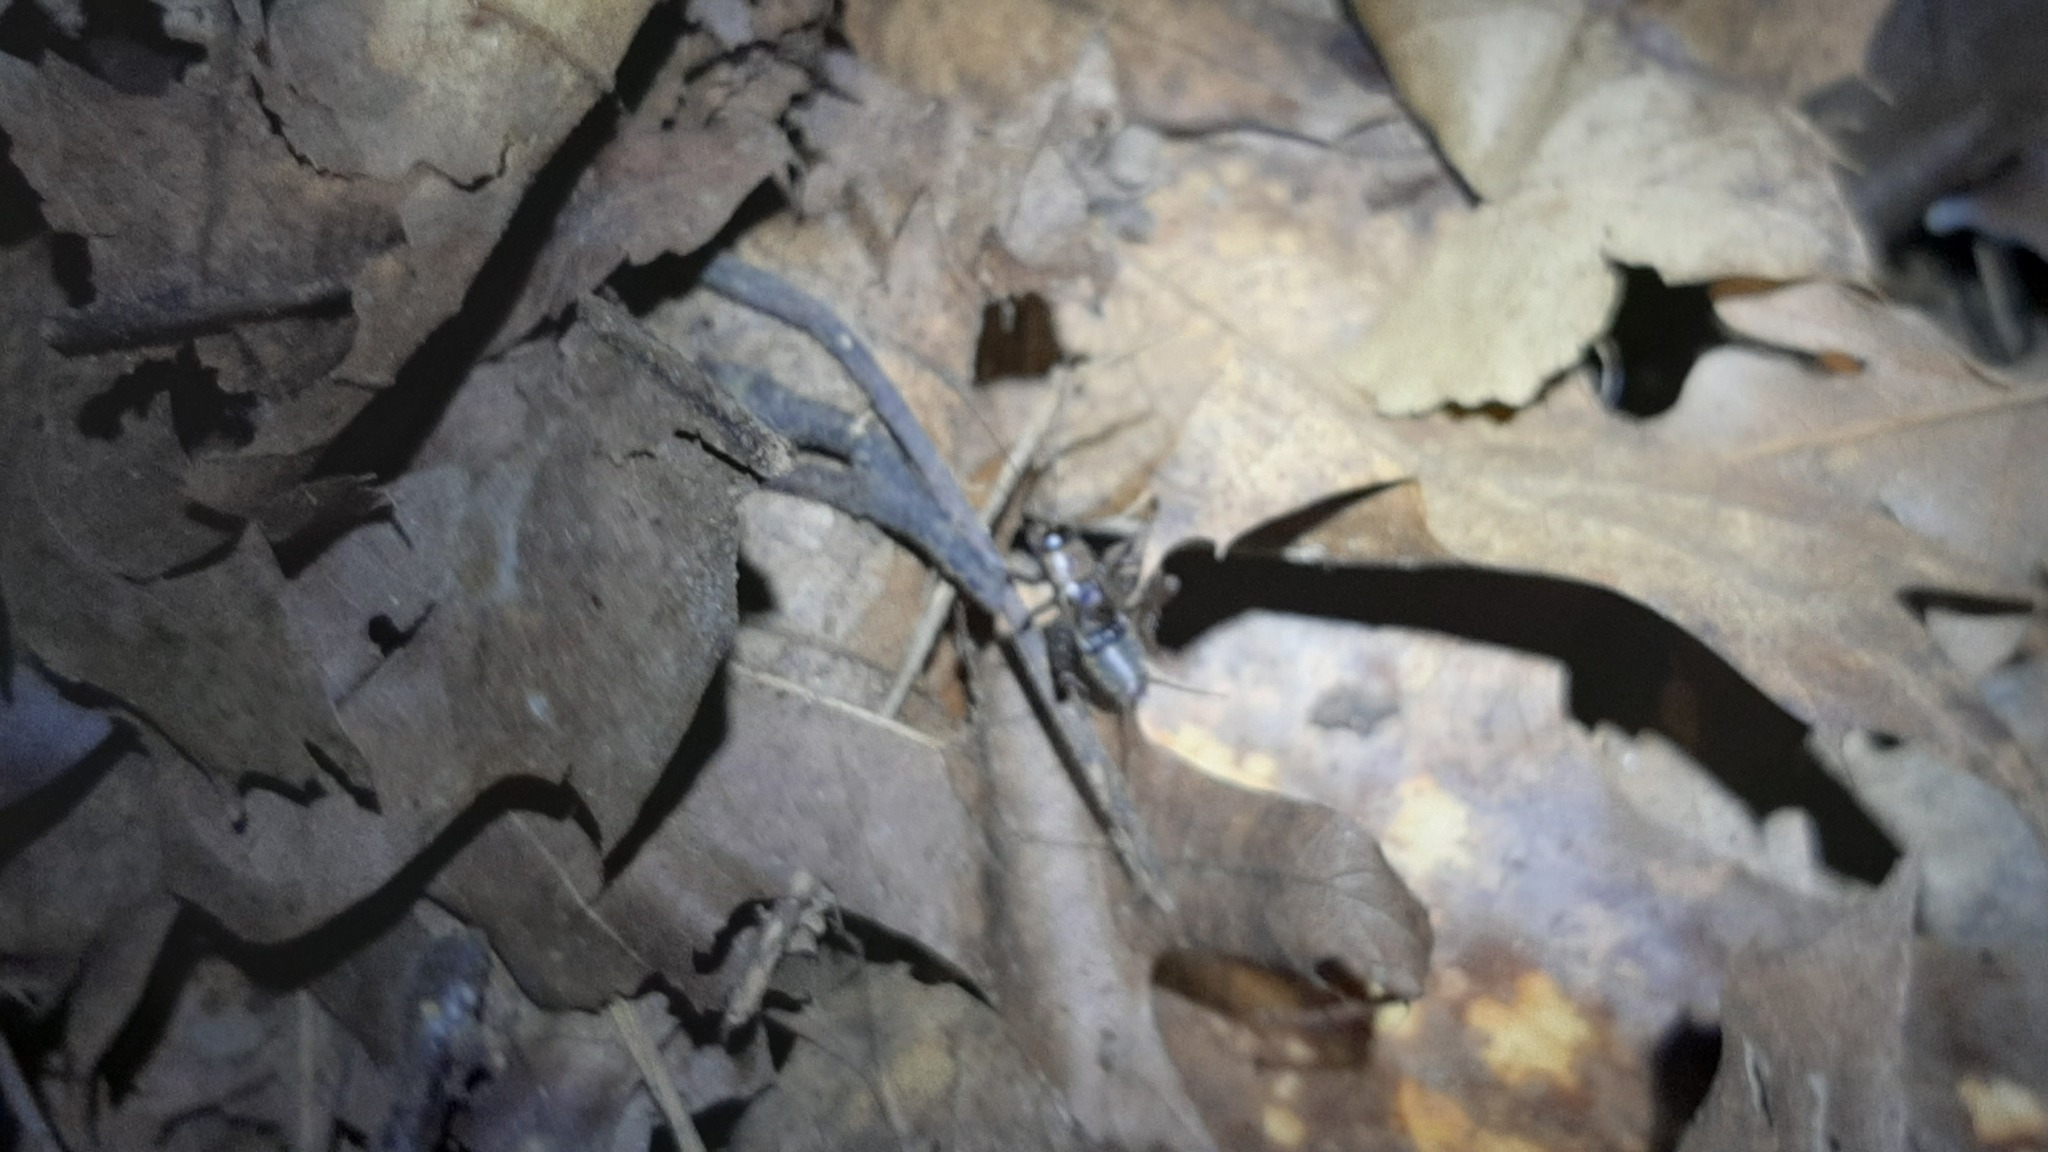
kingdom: Animalia
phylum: Arthropoda
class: Insecta
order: Orthoptera
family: Trigonidiidae
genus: Nemobius
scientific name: Nemobius sylvestris
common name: Wood-cricket
